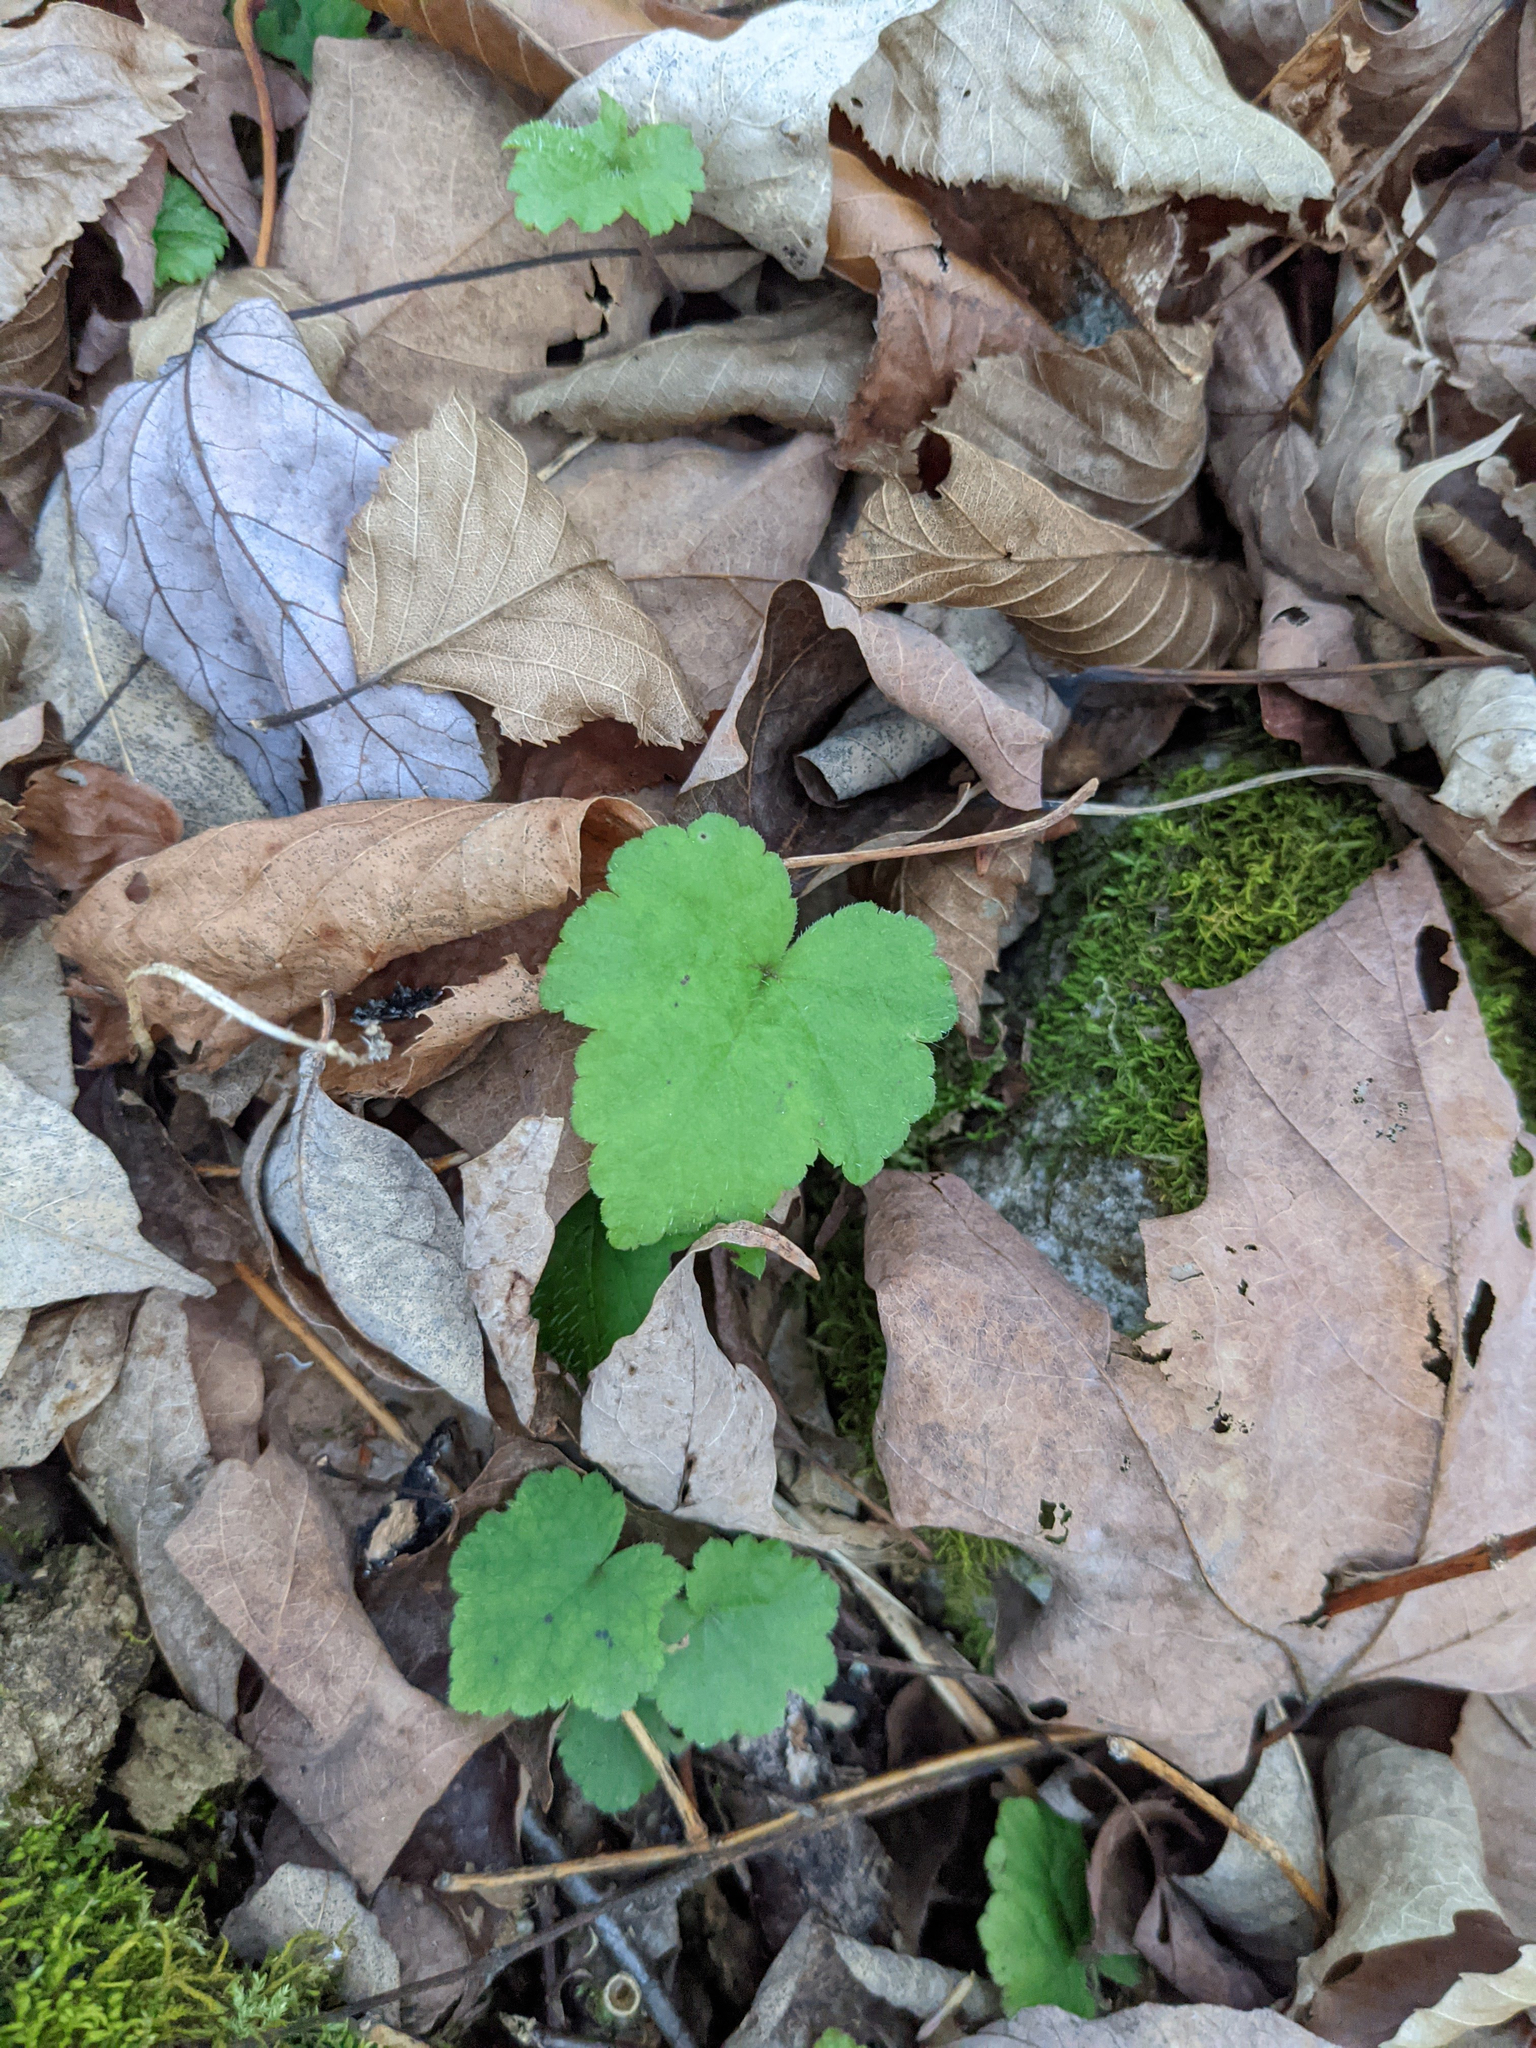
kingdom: Plantae
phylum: Tracheophyta
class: Magnoliopsida
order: Saxifragales
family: Saxifragaceae
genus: Tiarella
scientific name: Tiarella stolonifera
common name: Stoloniferous foamflower
